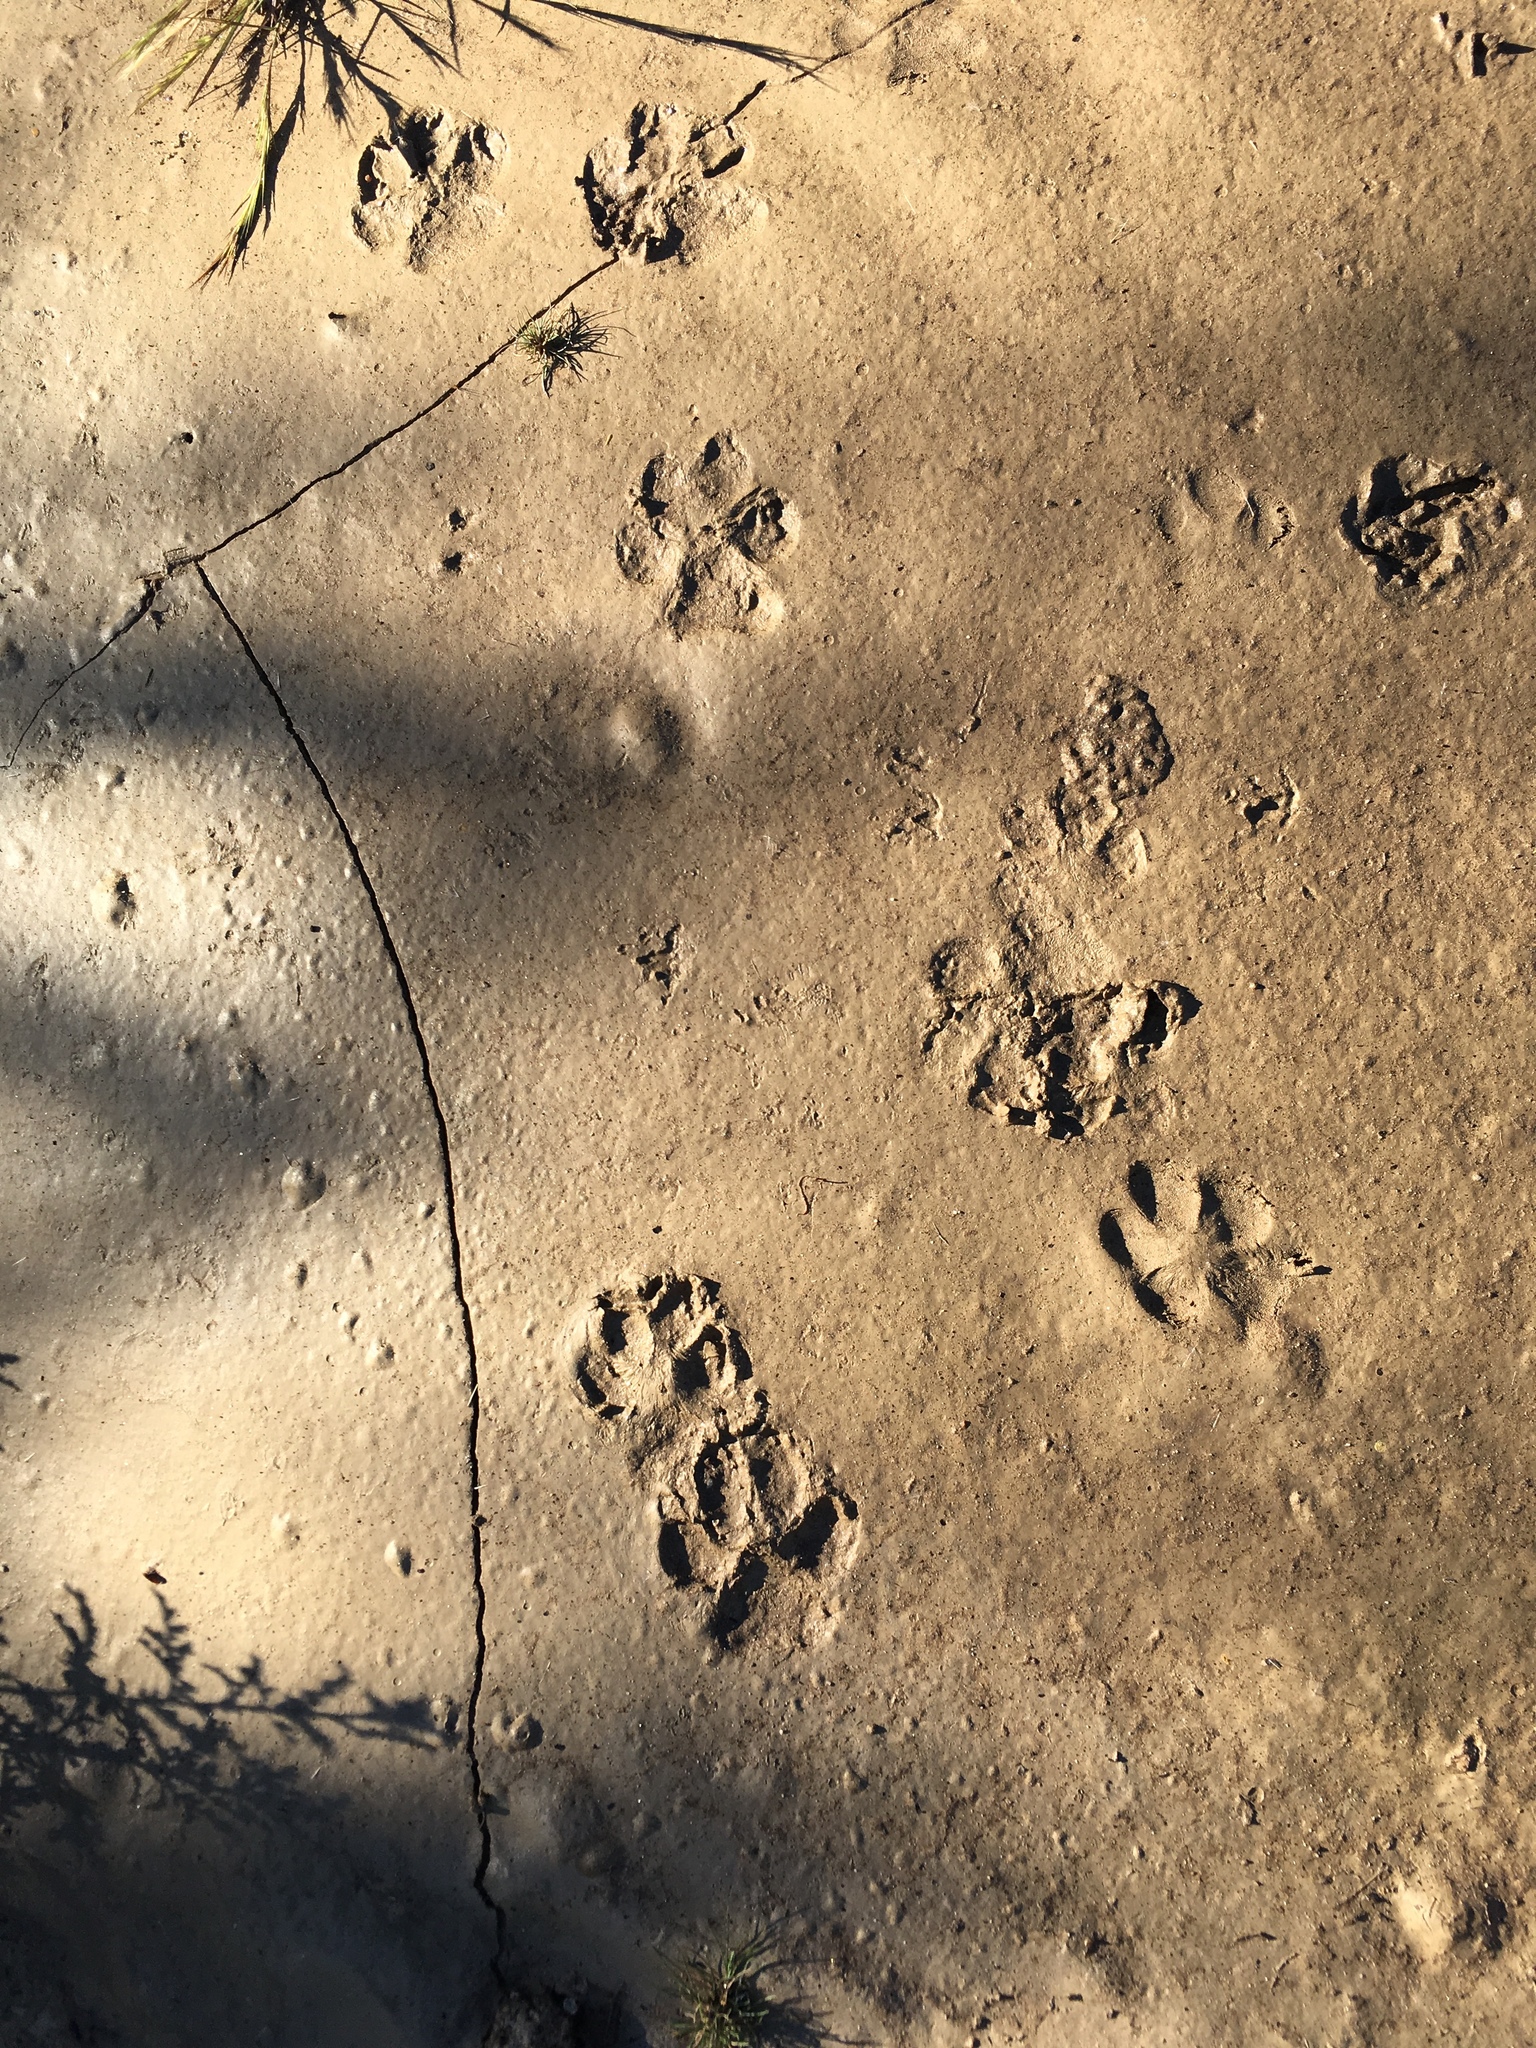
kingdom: Animalia
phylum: Chordata
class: Mammalia
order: Carnivora
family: Canidae
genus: Canis
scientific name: Canis latrans
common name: Coyote
